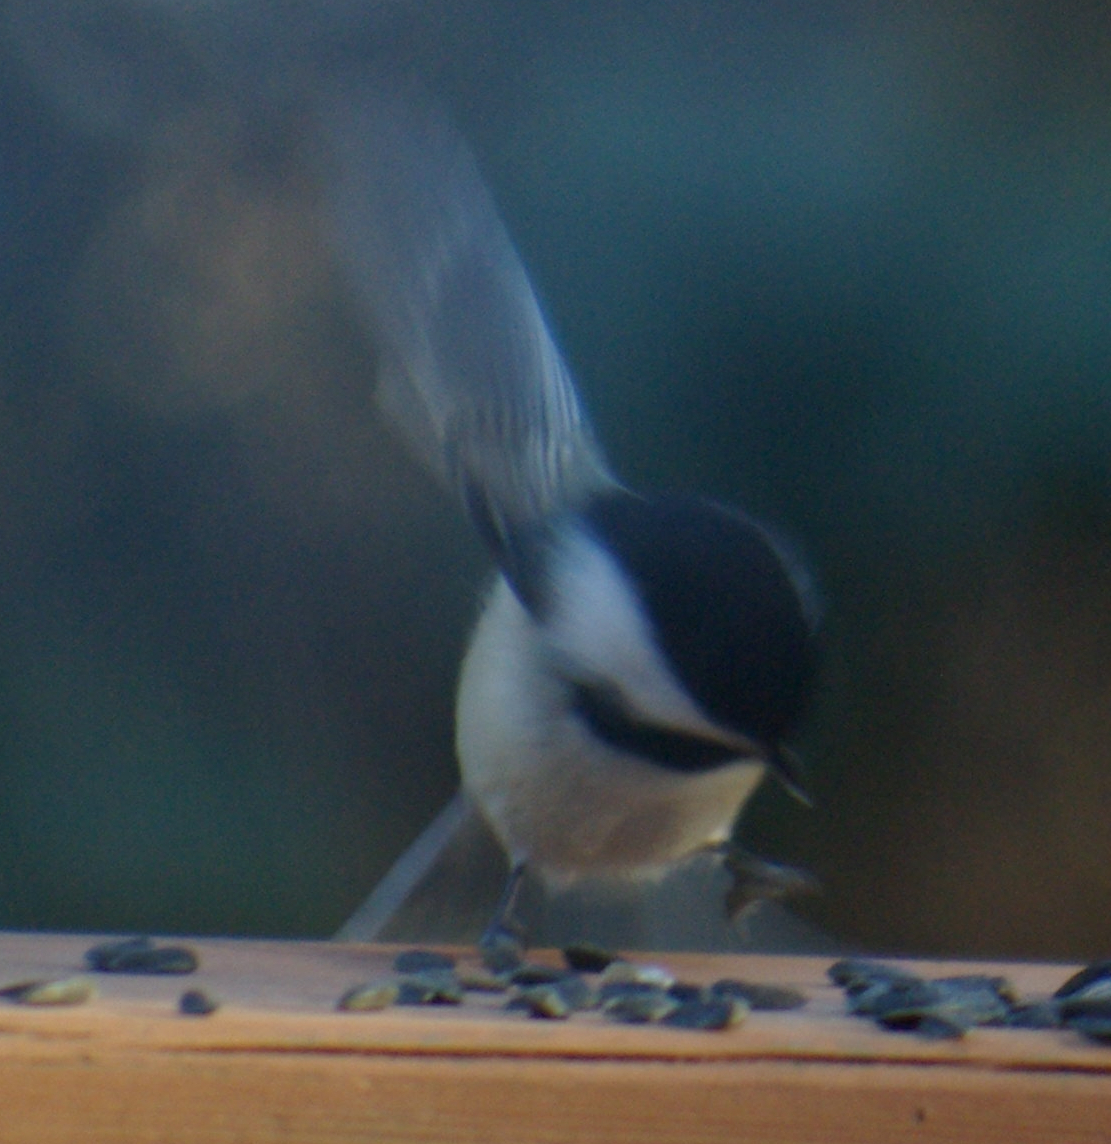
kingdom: Animalia
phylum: Chordata
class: Aves
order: Passeriformes
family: Paridae
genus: Poecile
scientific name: Poecile atricapillus
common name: Black-capped chickadee
